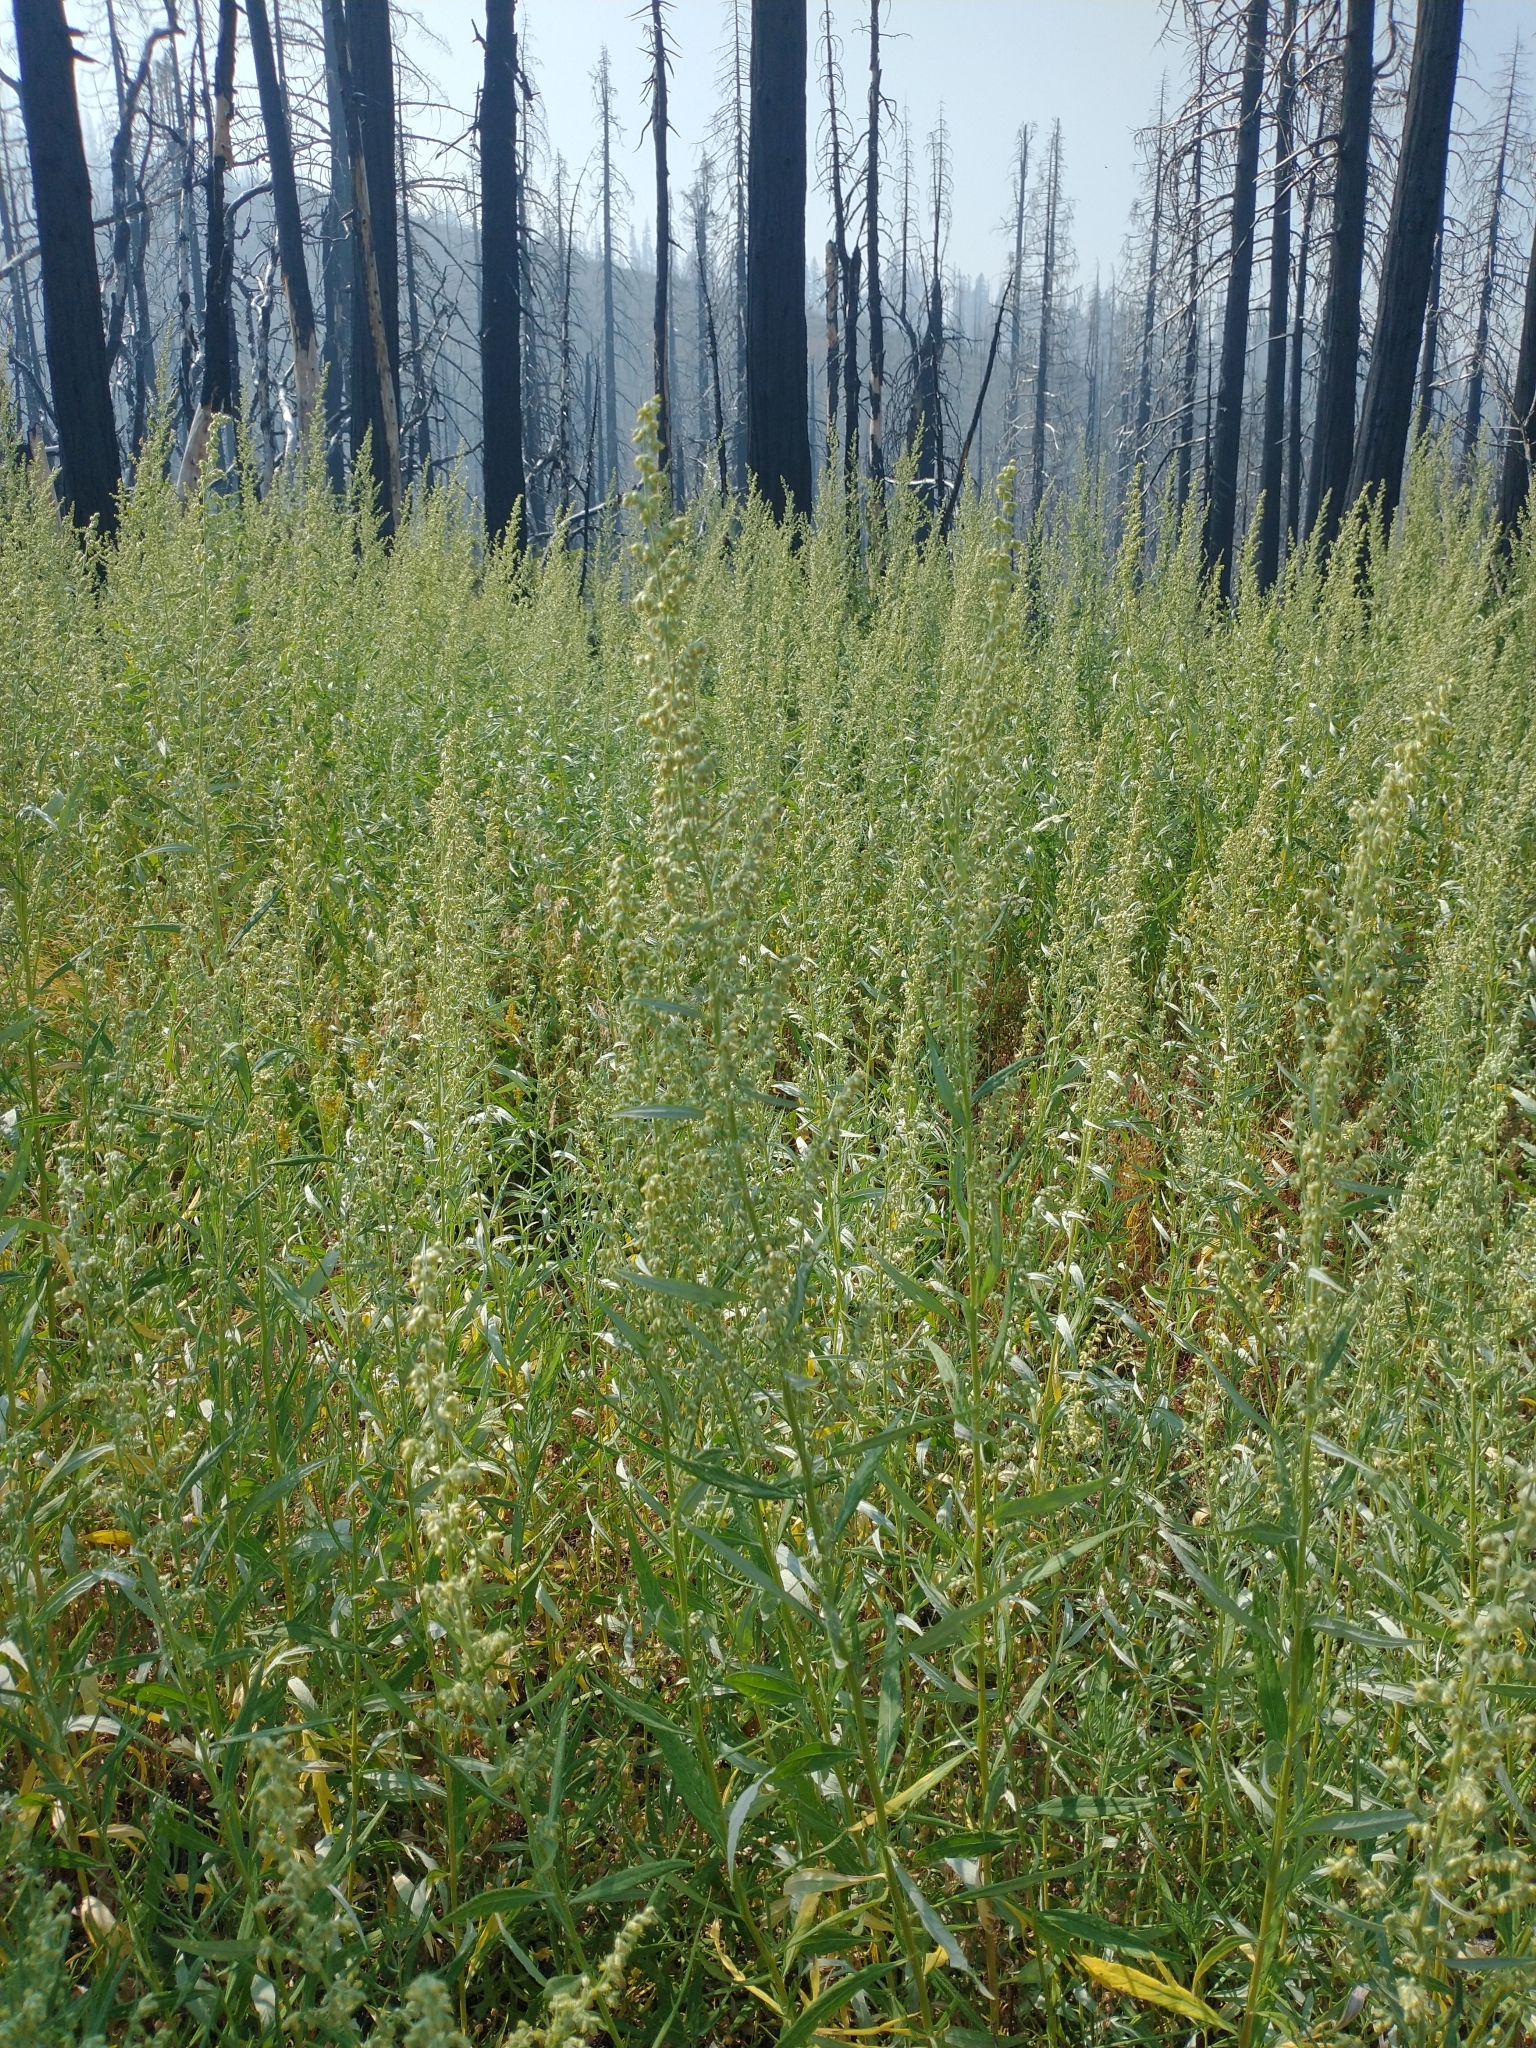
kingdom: Plantae
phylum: Tracheophyta
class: Magnoliopsida
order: Asterales
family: Asteraceae
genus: Artemisia
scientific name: Artemisia douglasiana
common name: Northwest mugwort
